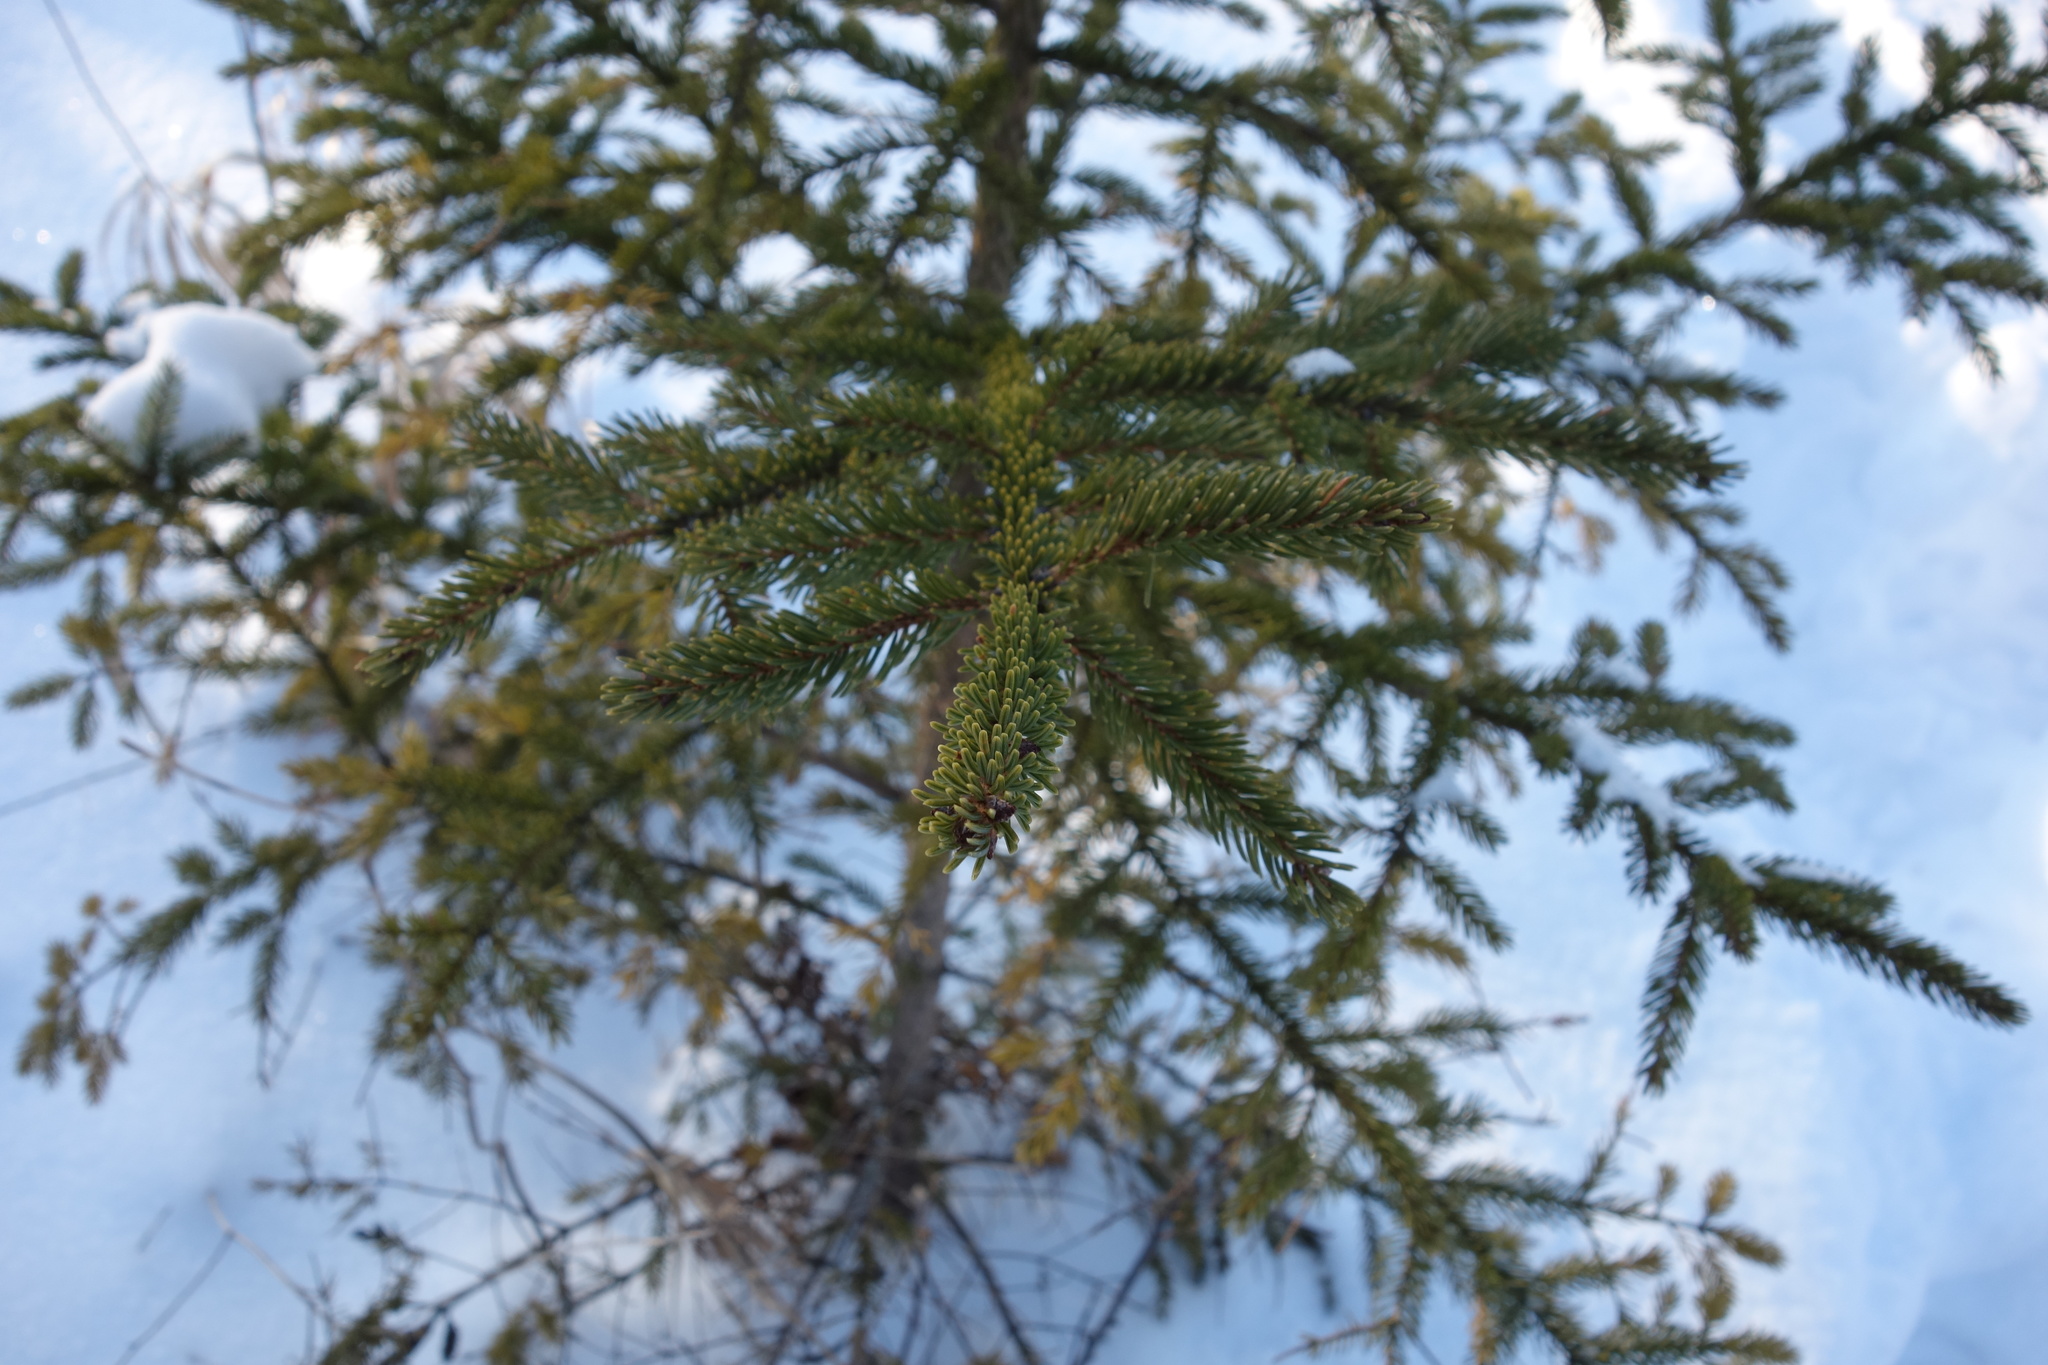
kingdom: Plantae
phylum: Tracheophyta
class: Pinopsida
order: Pinales
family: Pinaceae
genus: Picea
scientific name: Picea rubens
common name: Red spruce
